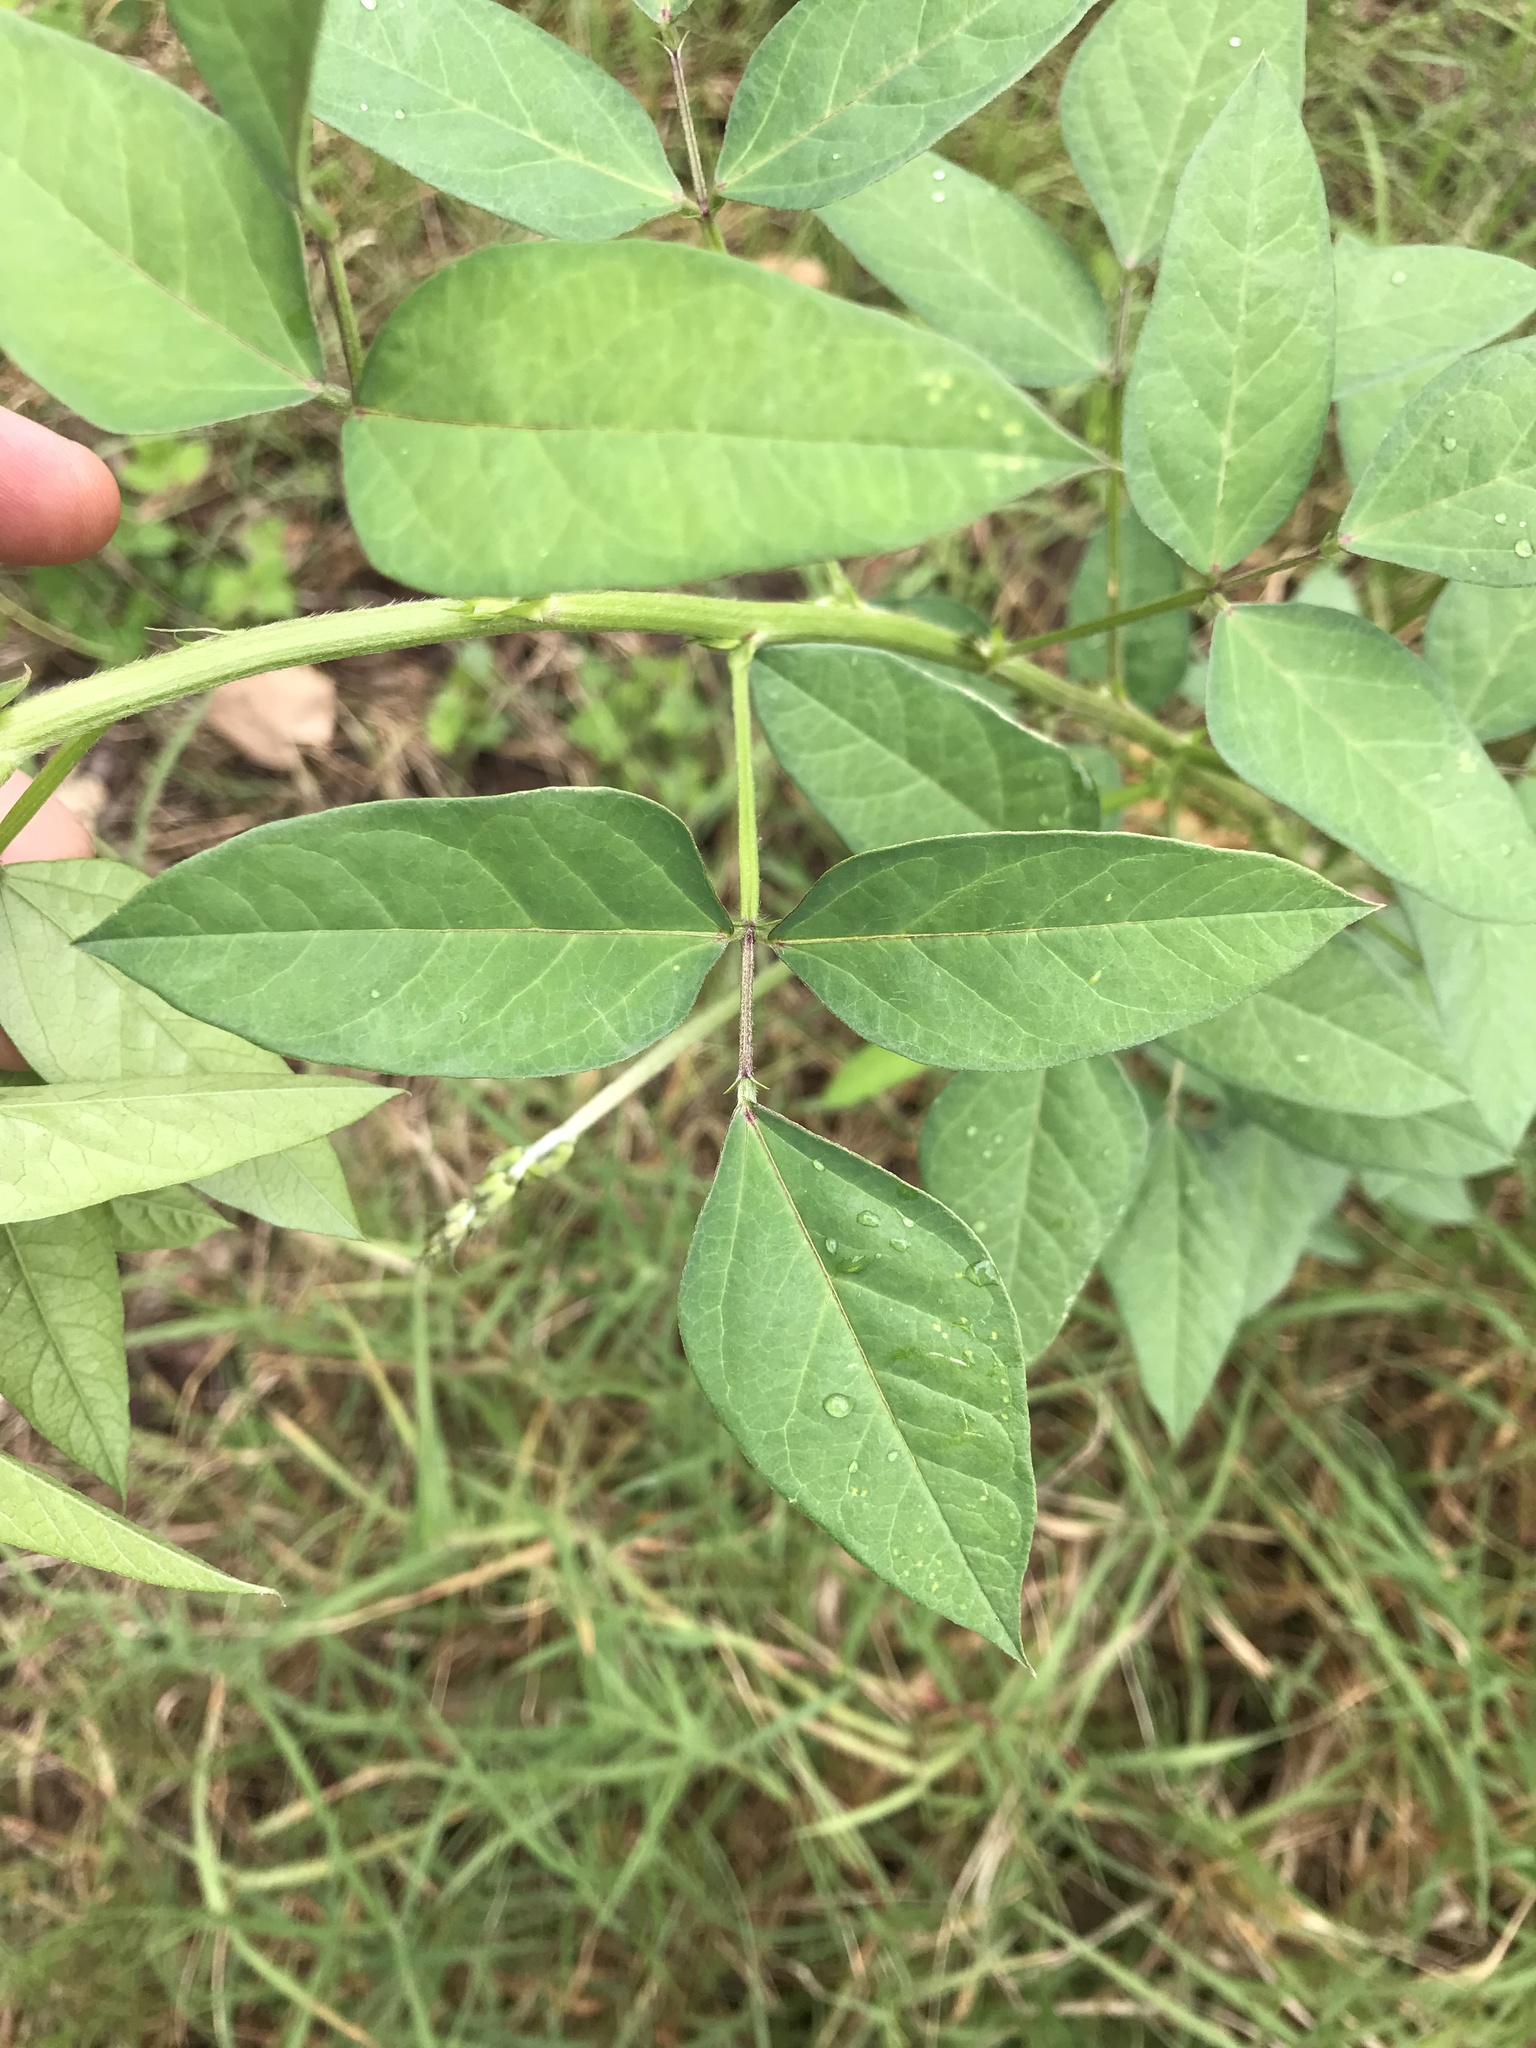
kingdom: Plantae
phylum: Tracheophyta
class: Magnoliopsida
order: Fabales
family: Fabaceae
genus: Macroptilium
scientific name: Macroptilium lathyroides
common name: Wild bushbean
